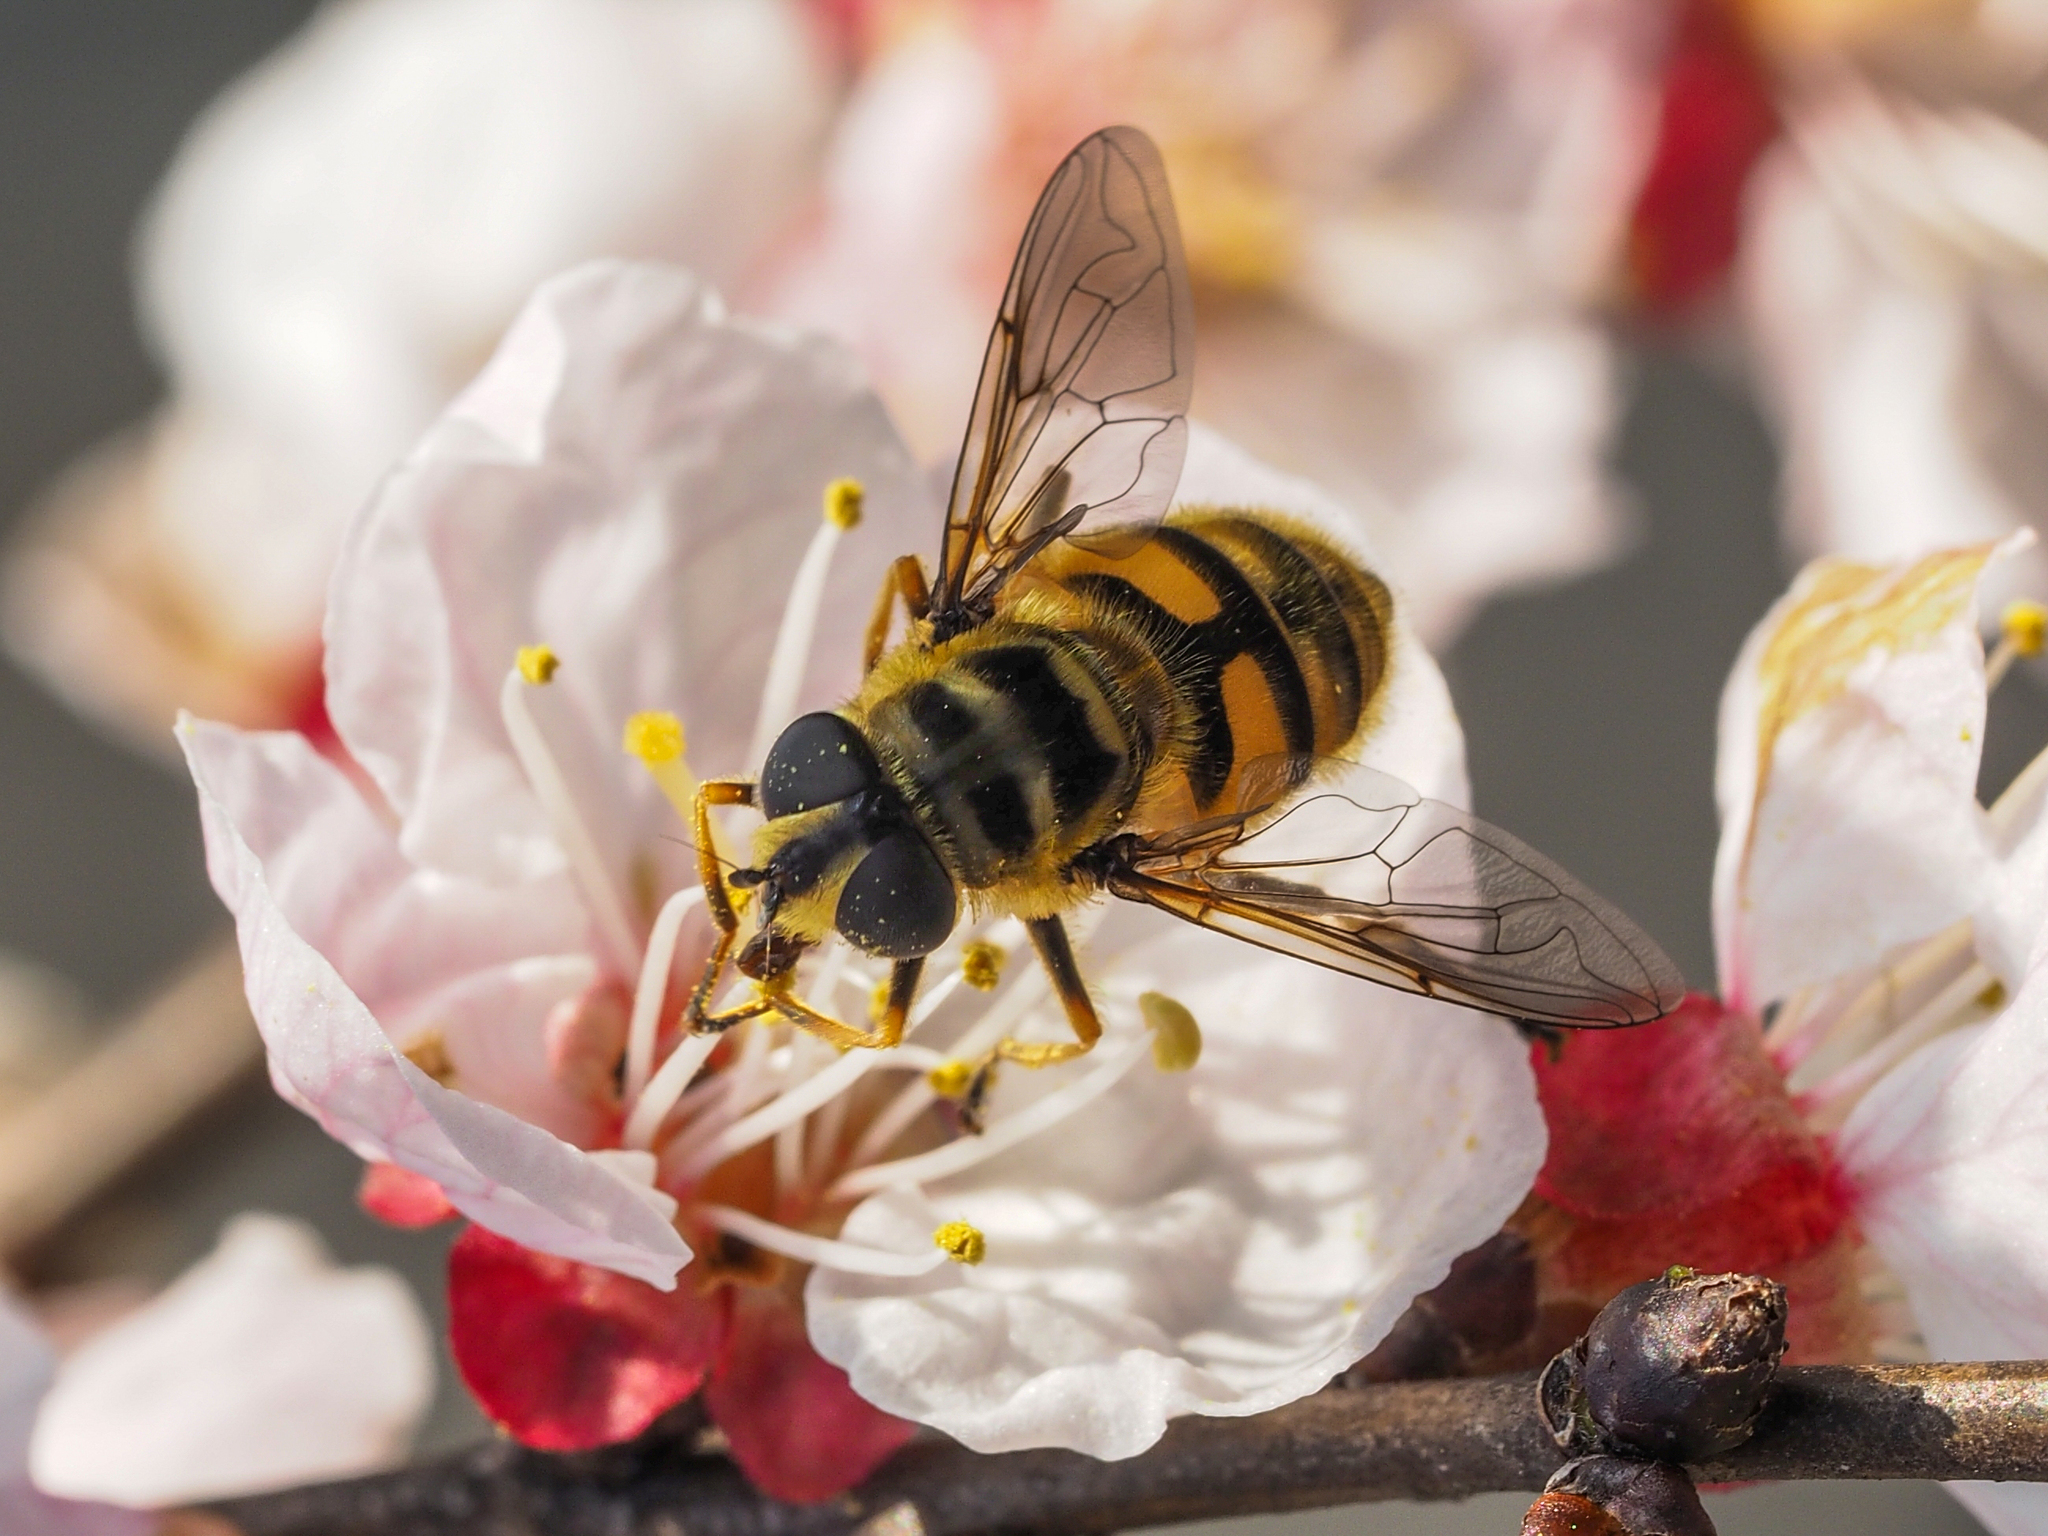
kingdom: Animalia
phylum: Arthropoda
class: Insecta
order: Diptera
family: Syrphidae
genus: Myathropa
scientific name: Myathropa florea
